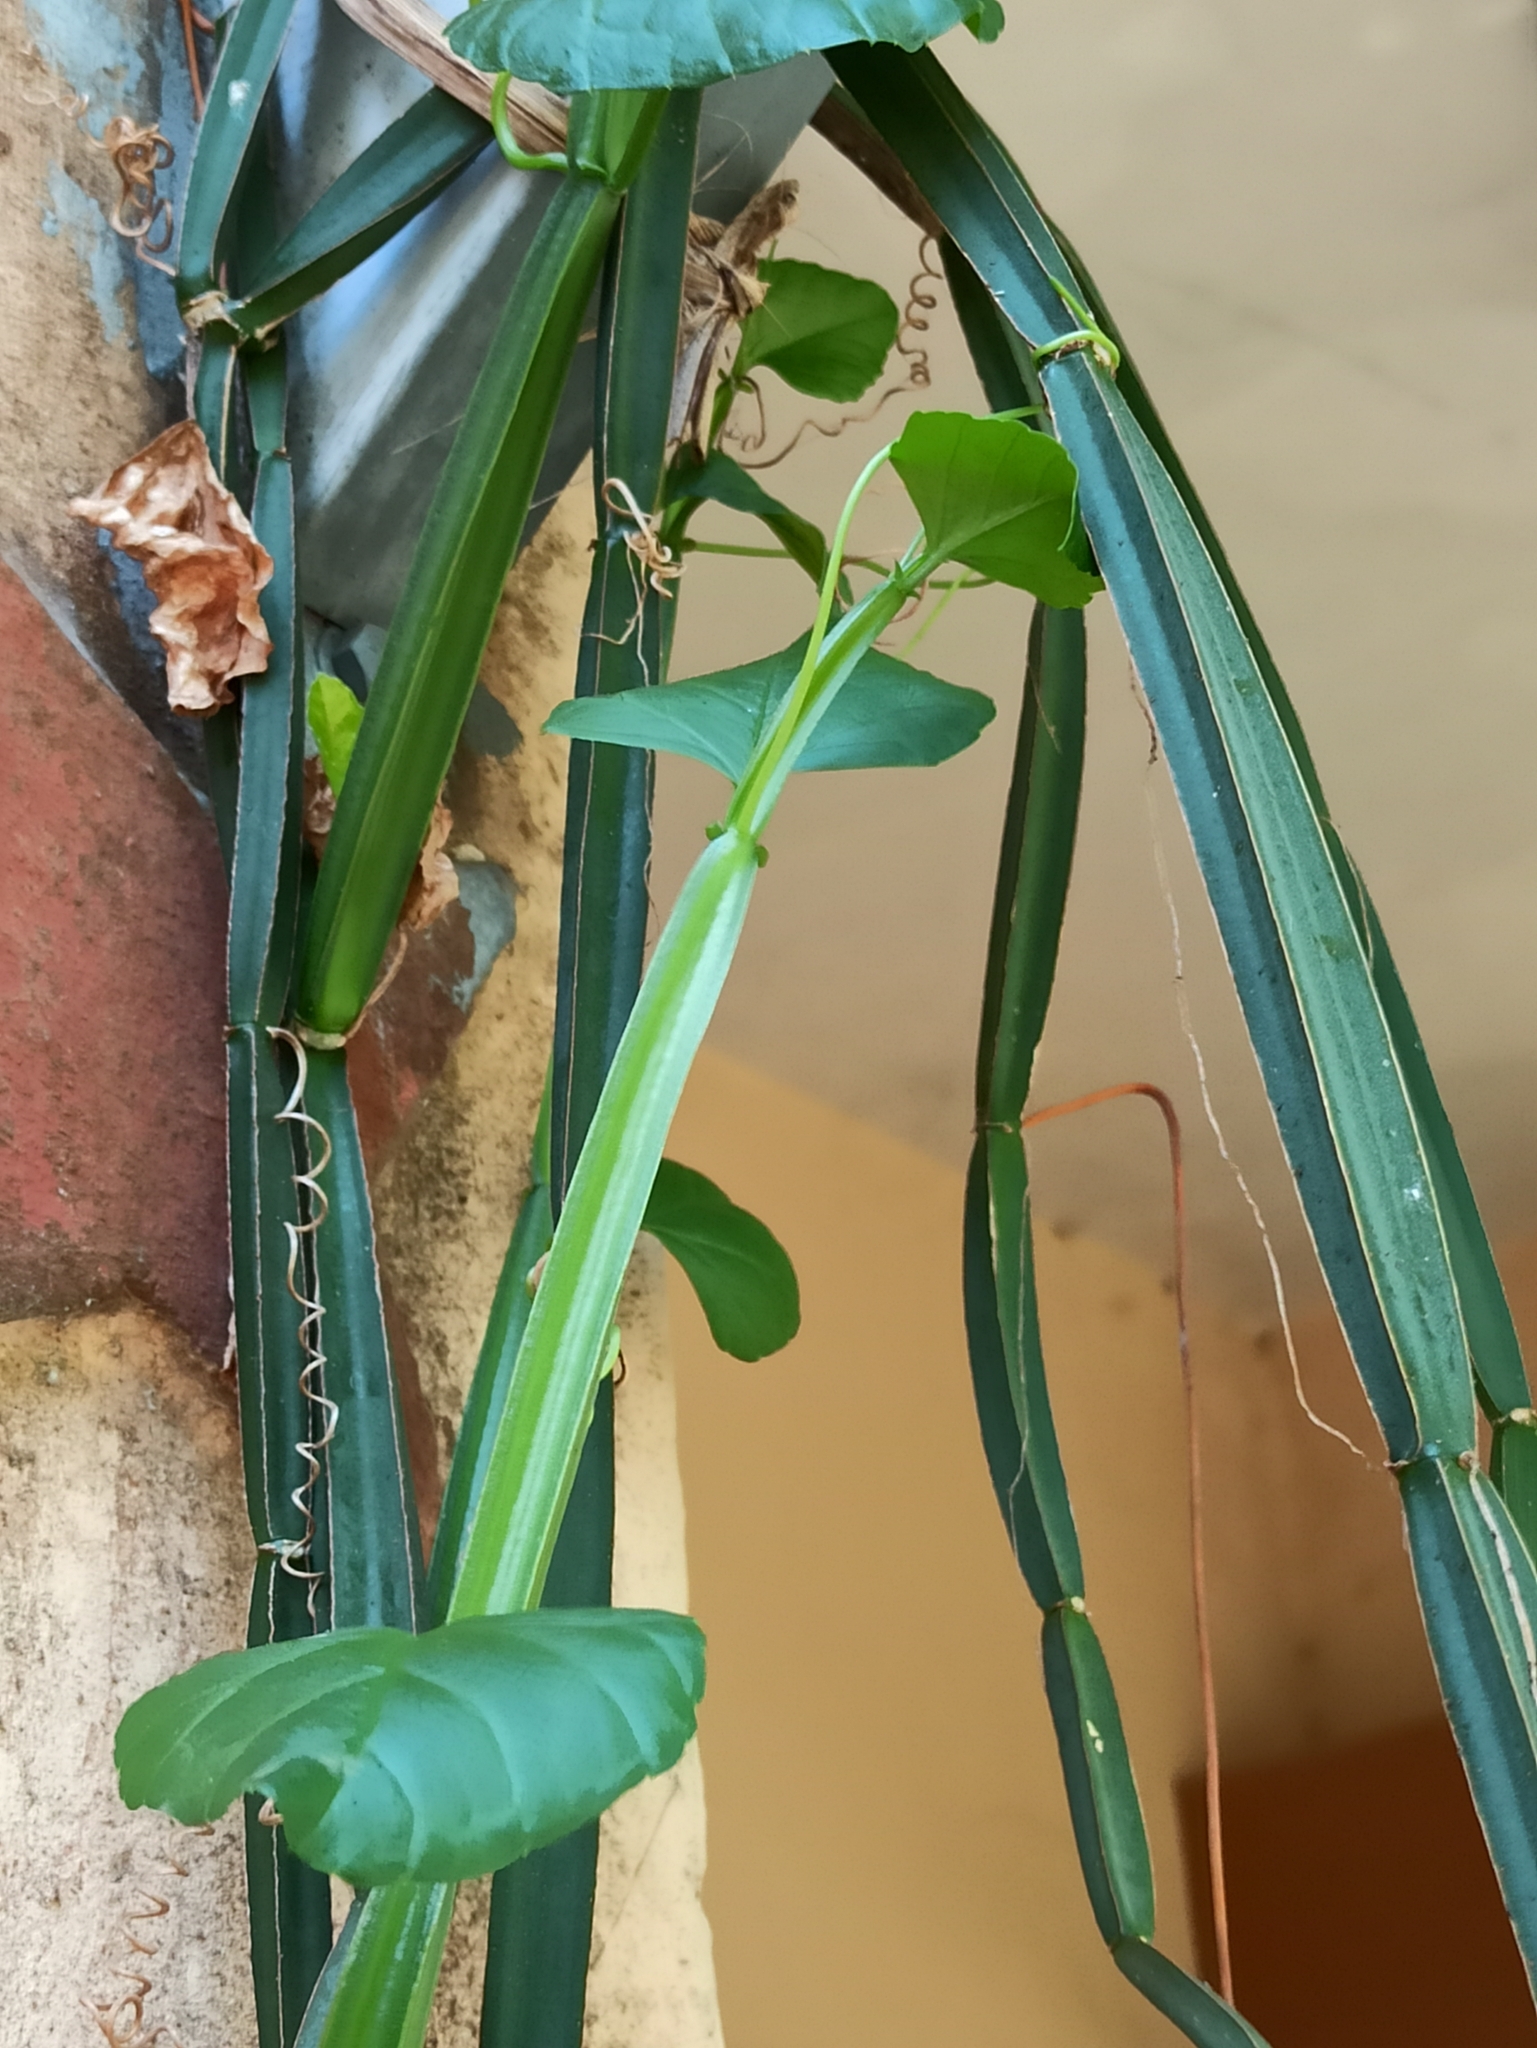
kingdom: Plantae
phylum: Tracheophyta
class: Magnoliopsida
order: Vitales
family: Vitaceae
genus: Cissus
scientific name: Cissus quadrangularis
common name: Veldt-grape
